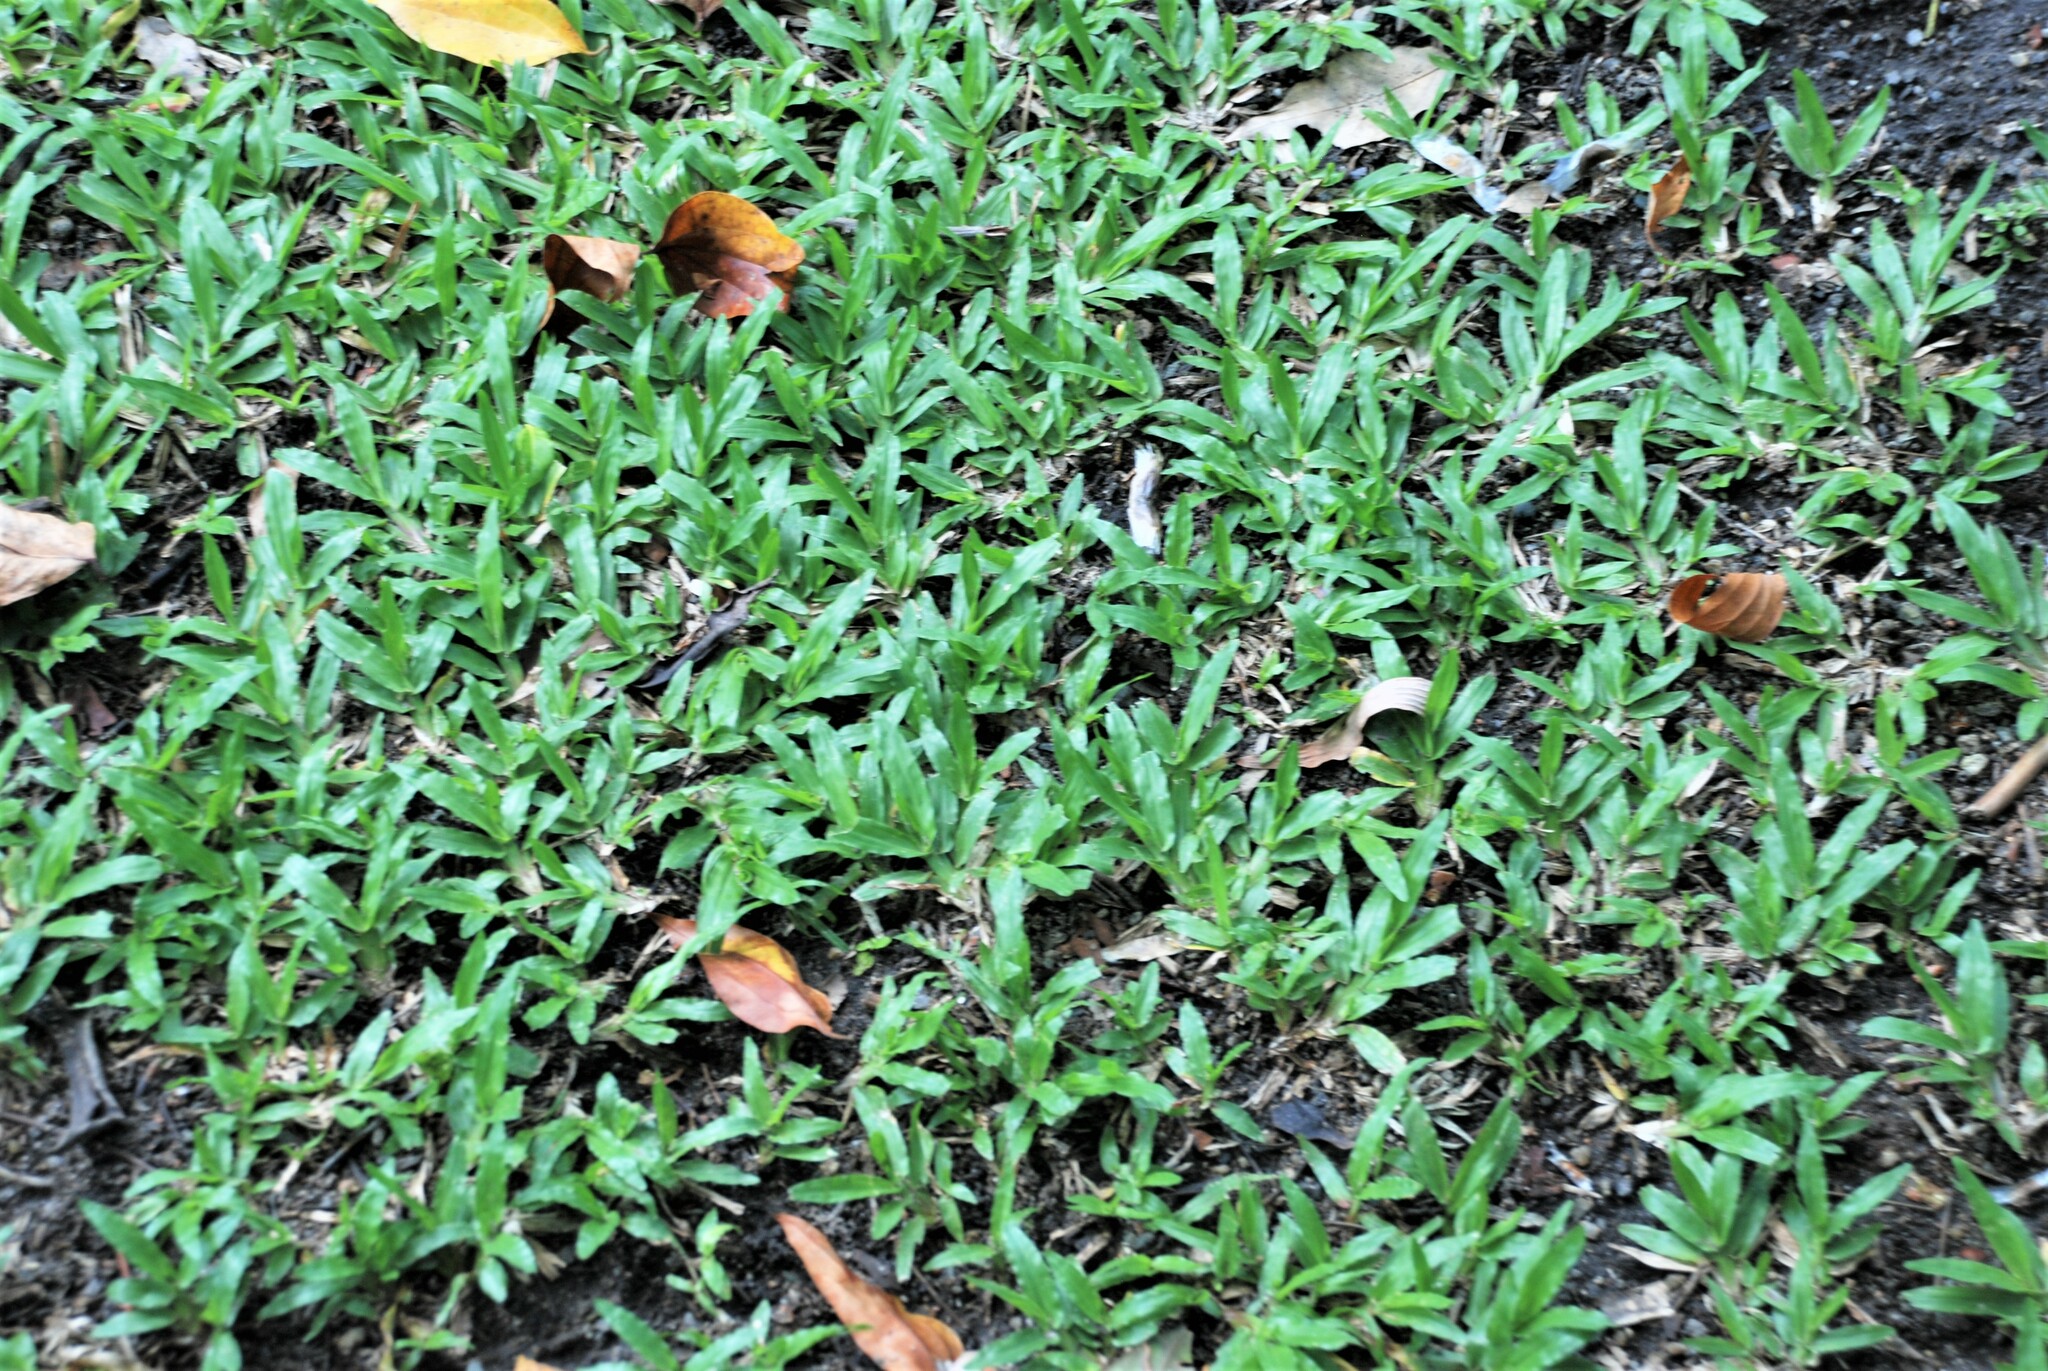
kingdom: Plantae
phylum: Tracheophyta
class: Liliopsida
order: Poales
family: Poaceae
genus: Axonopus
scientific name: Axonopus compressus
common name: American carpet grass
